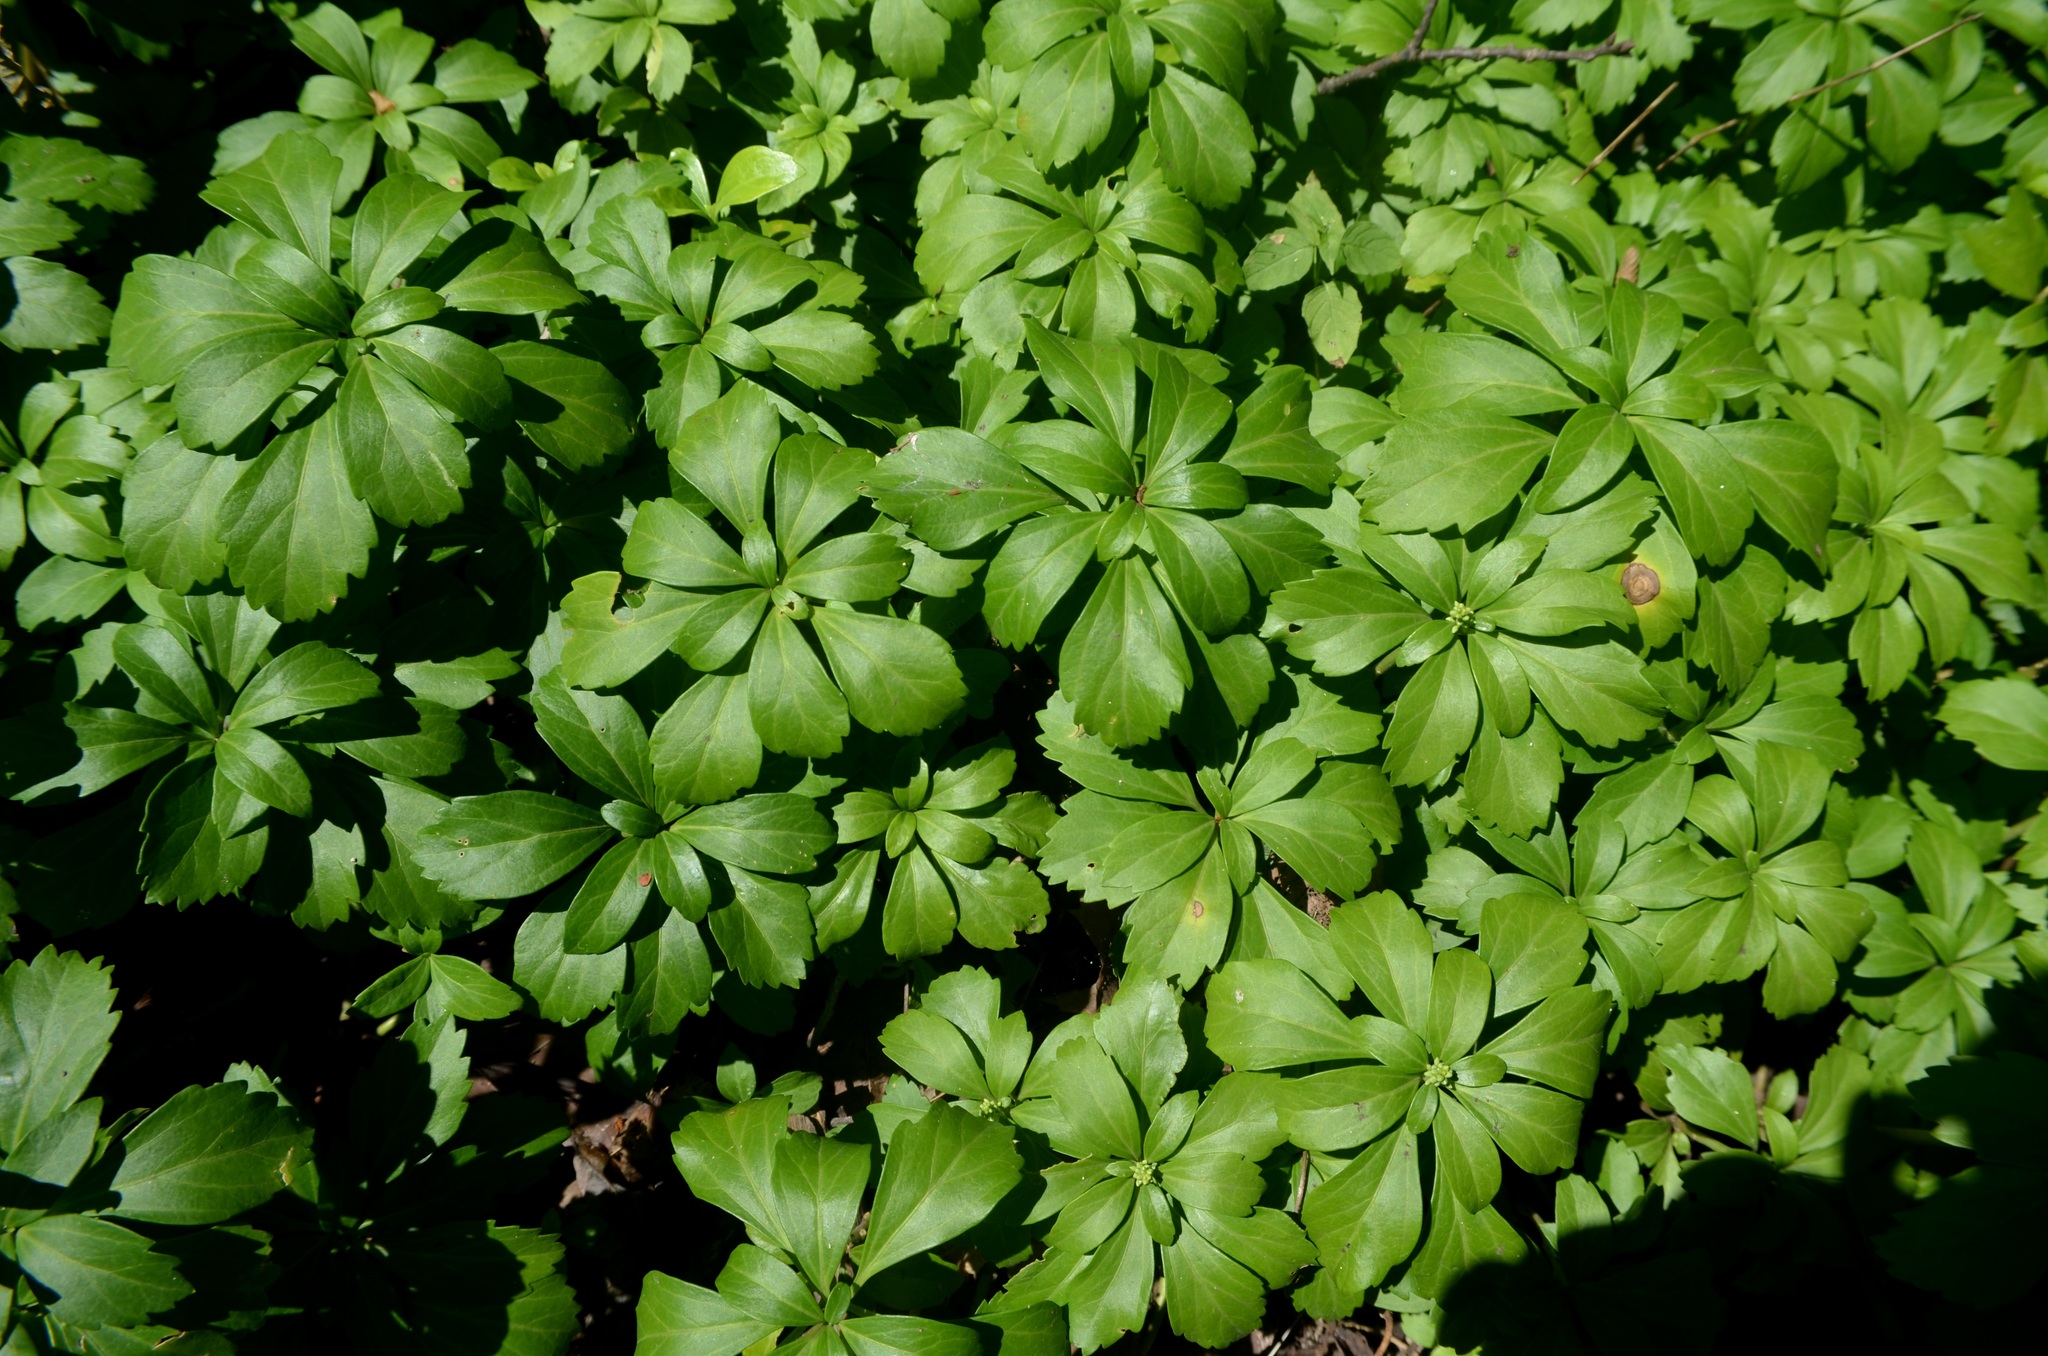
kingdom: Plantae
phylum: Tracheophyta
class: Magnoliopsida
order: Buxales
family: Buxaceae
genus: Pachysandra
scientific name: Pachysandra terminalis
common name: Japanese pachysandra
